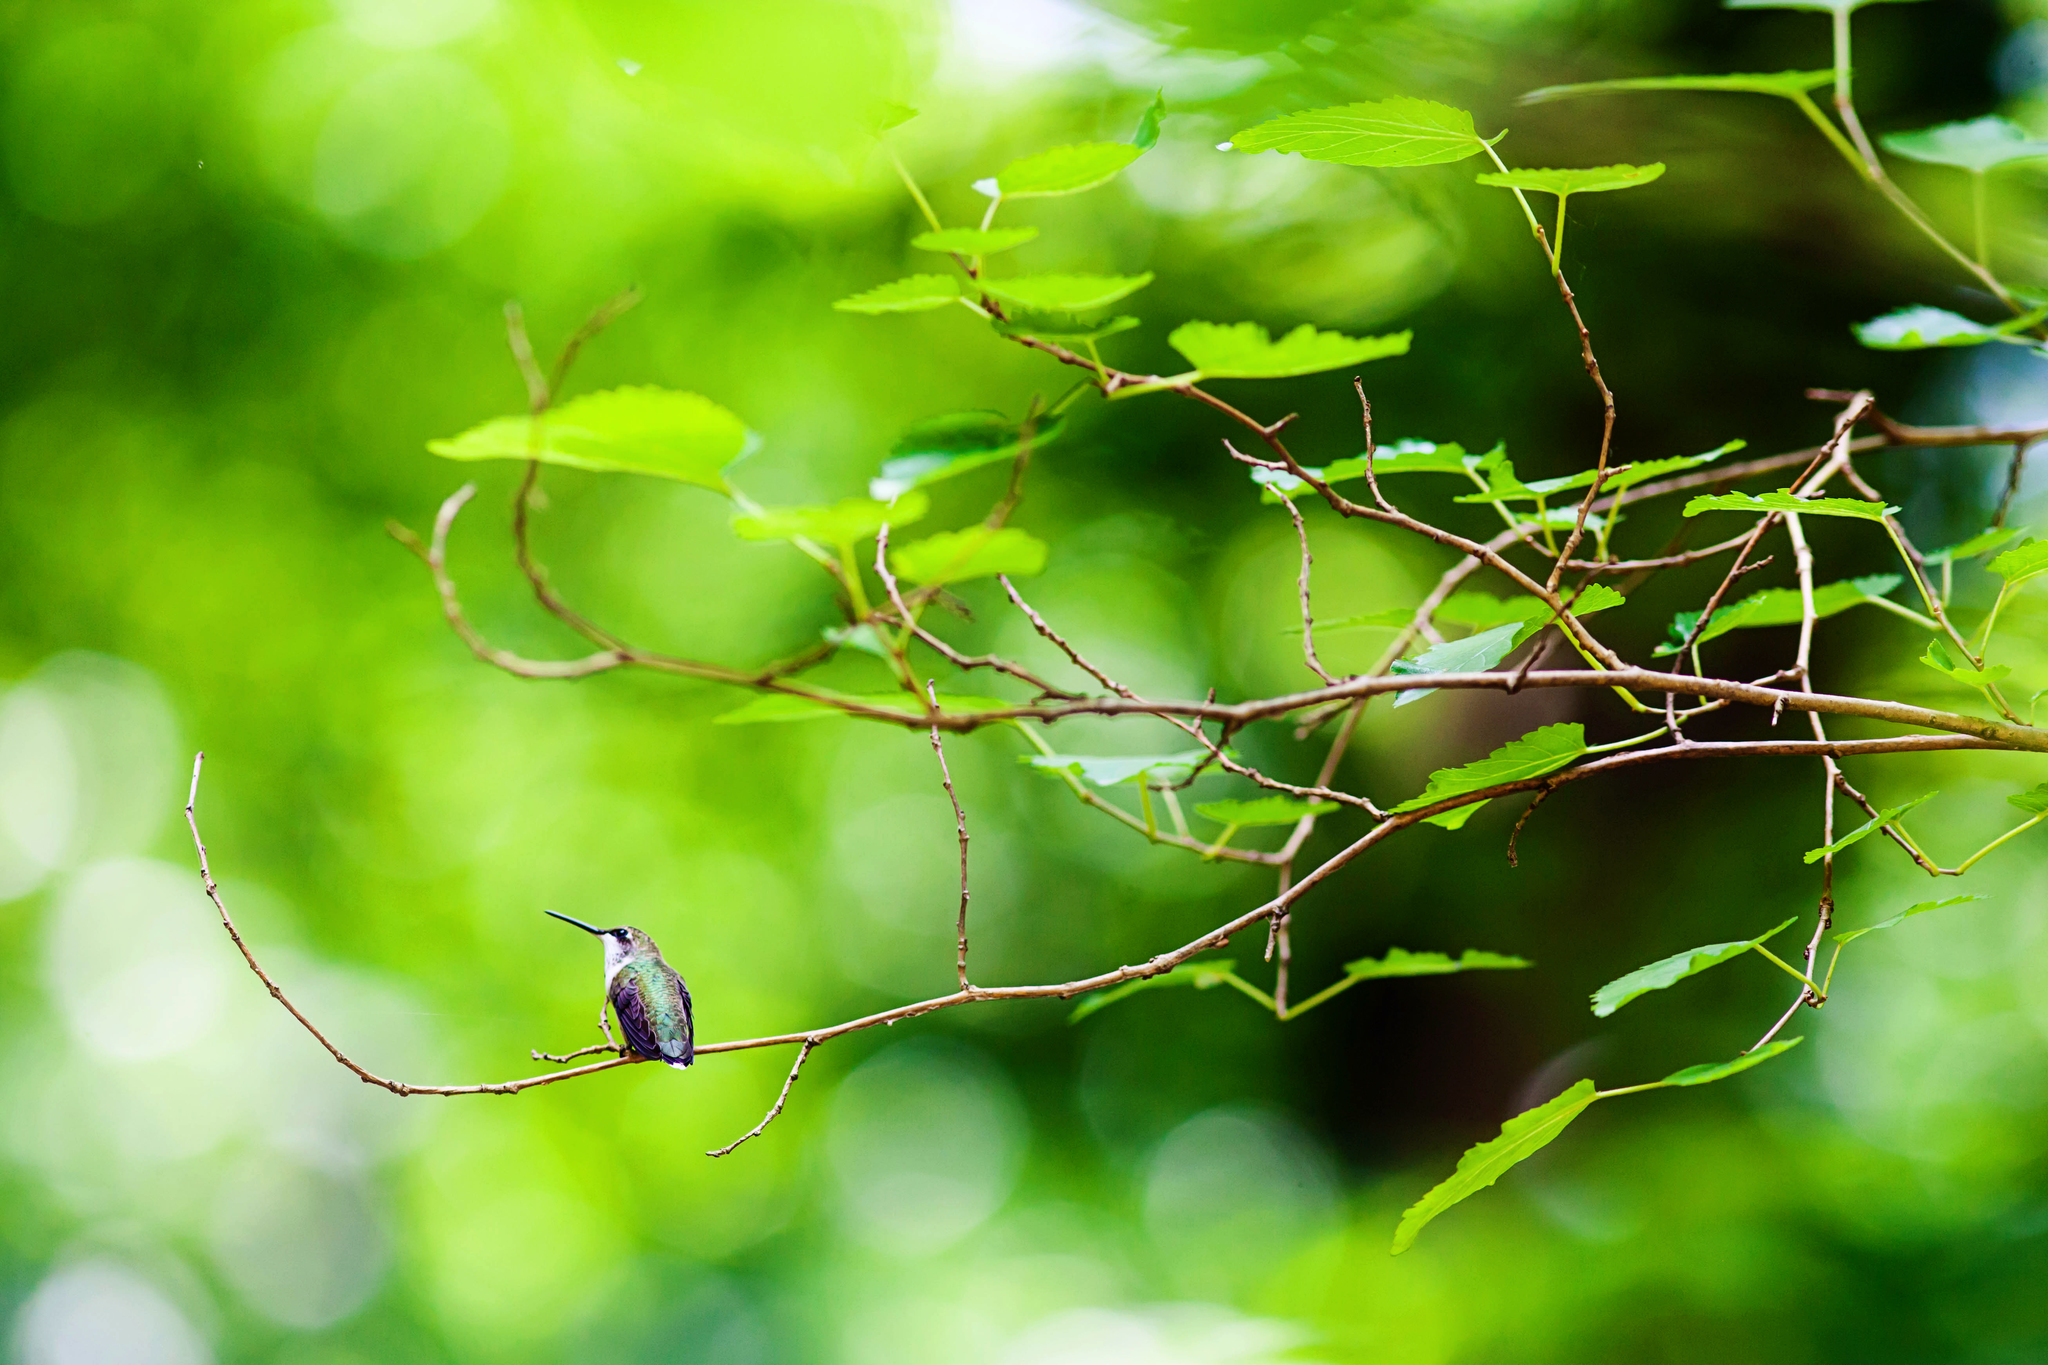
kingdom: Animalia
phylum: Chordata
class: Aves
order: Apodiformes
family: Trochilidae
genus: Archilochus
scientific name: Archilochus colubris
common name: Ruby-throated hummingbird
